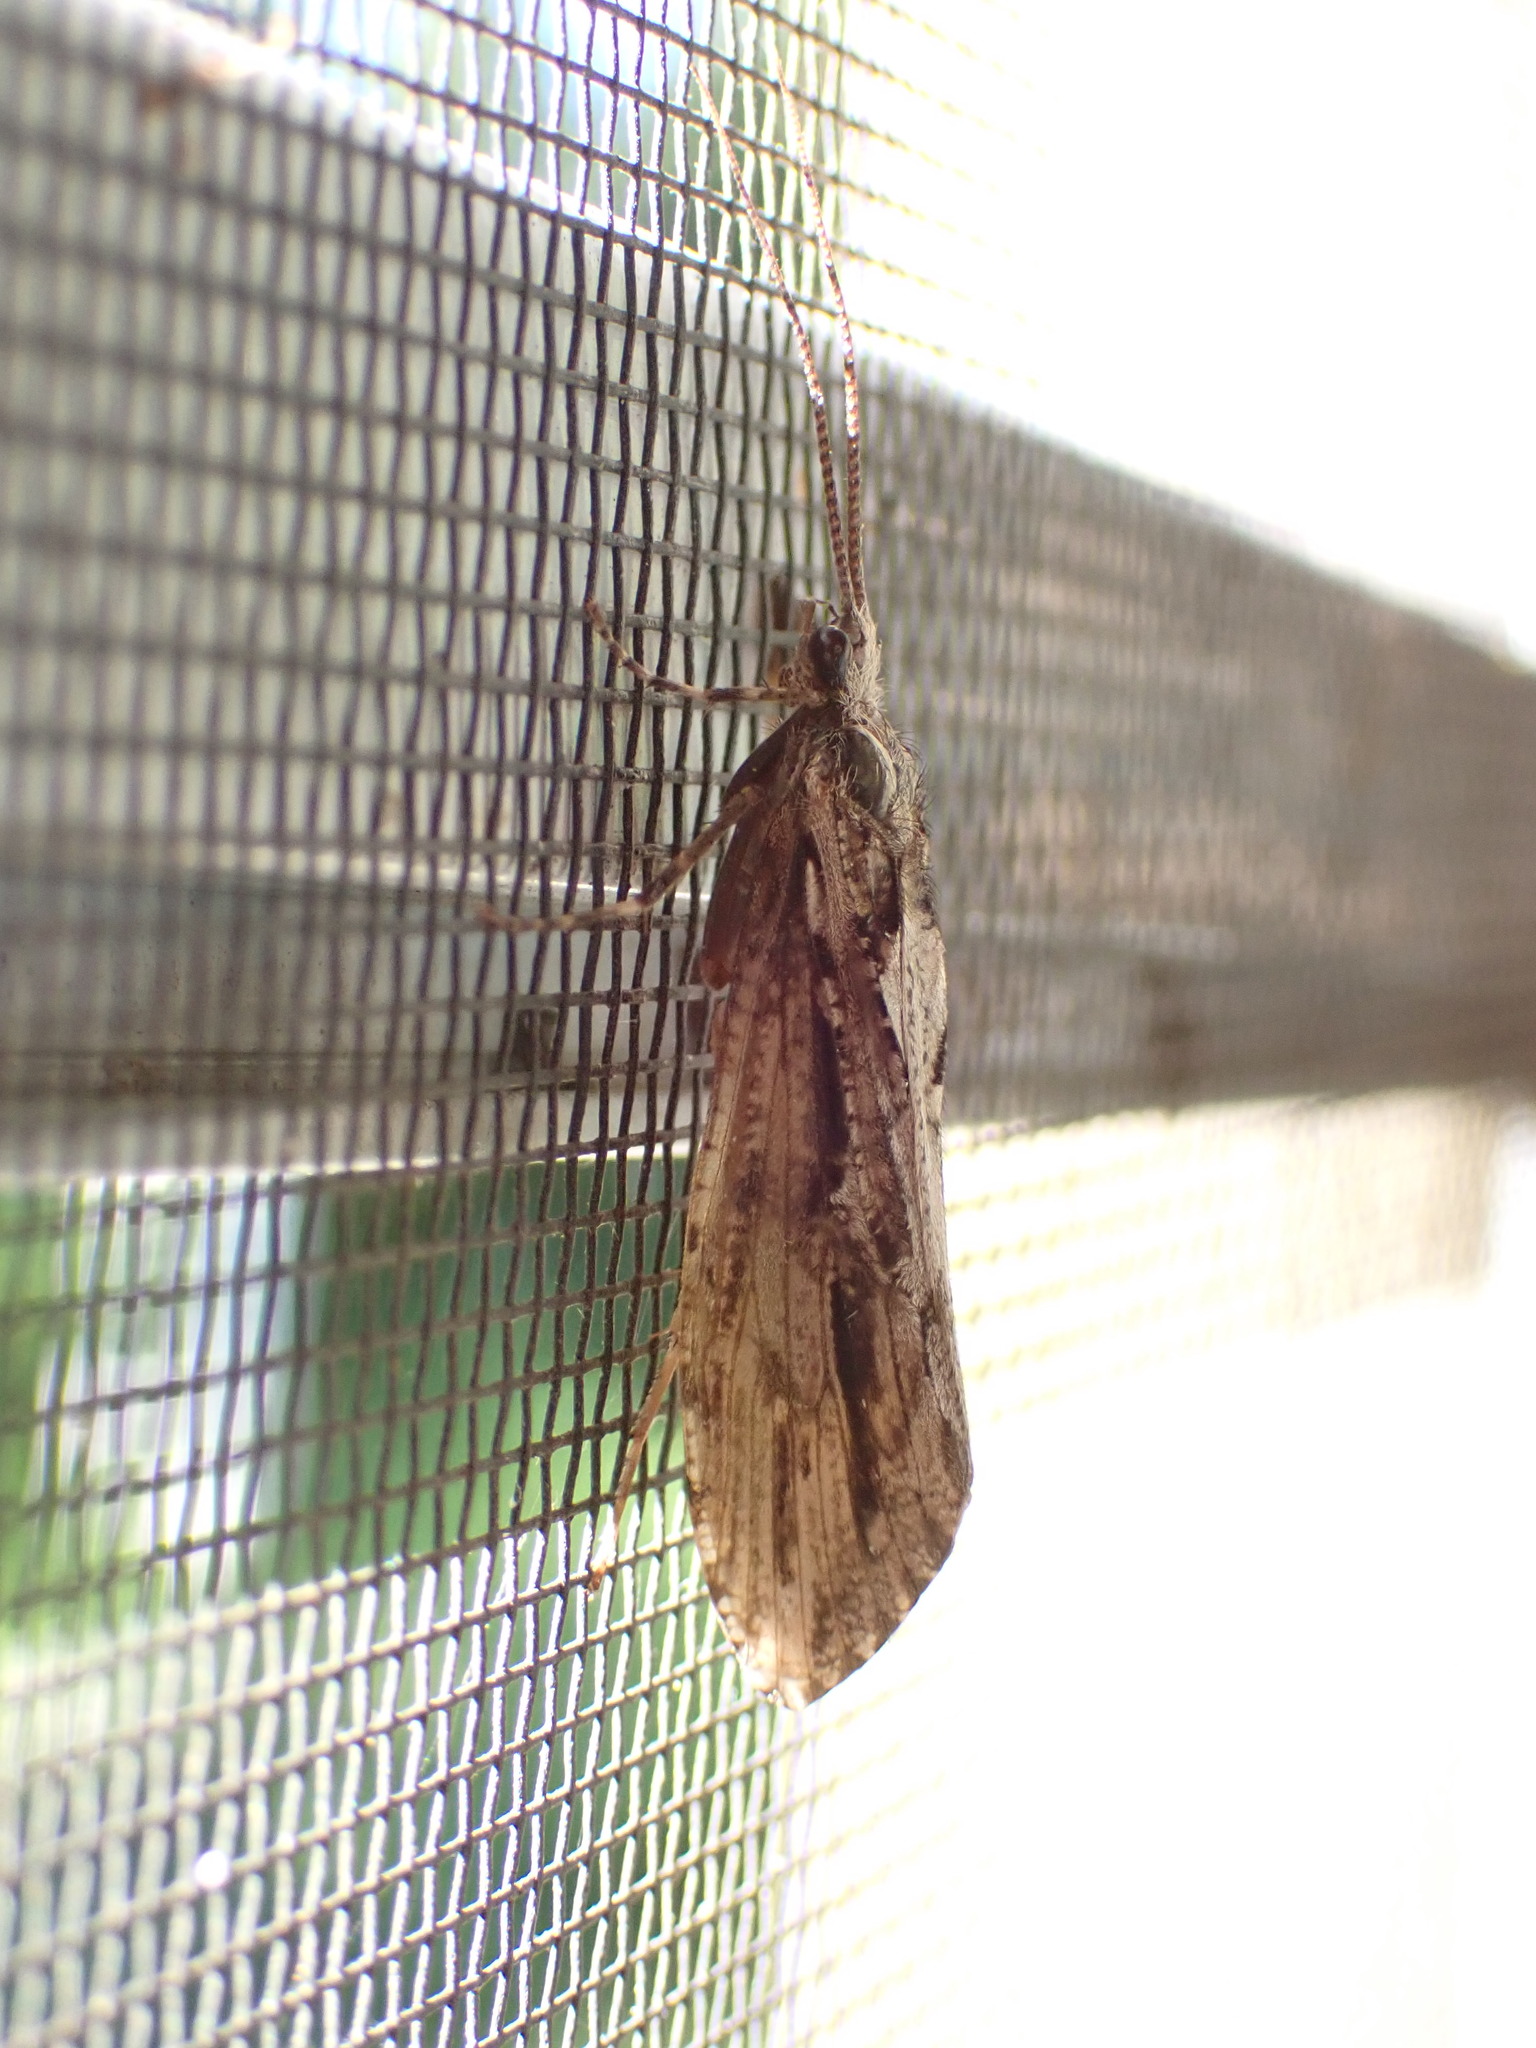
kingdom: Animalia
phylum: Arthropoda
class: Insecta
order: Trichoptera
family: Phryganeidae
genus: Phryganea
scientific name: Phryganea cinerea
